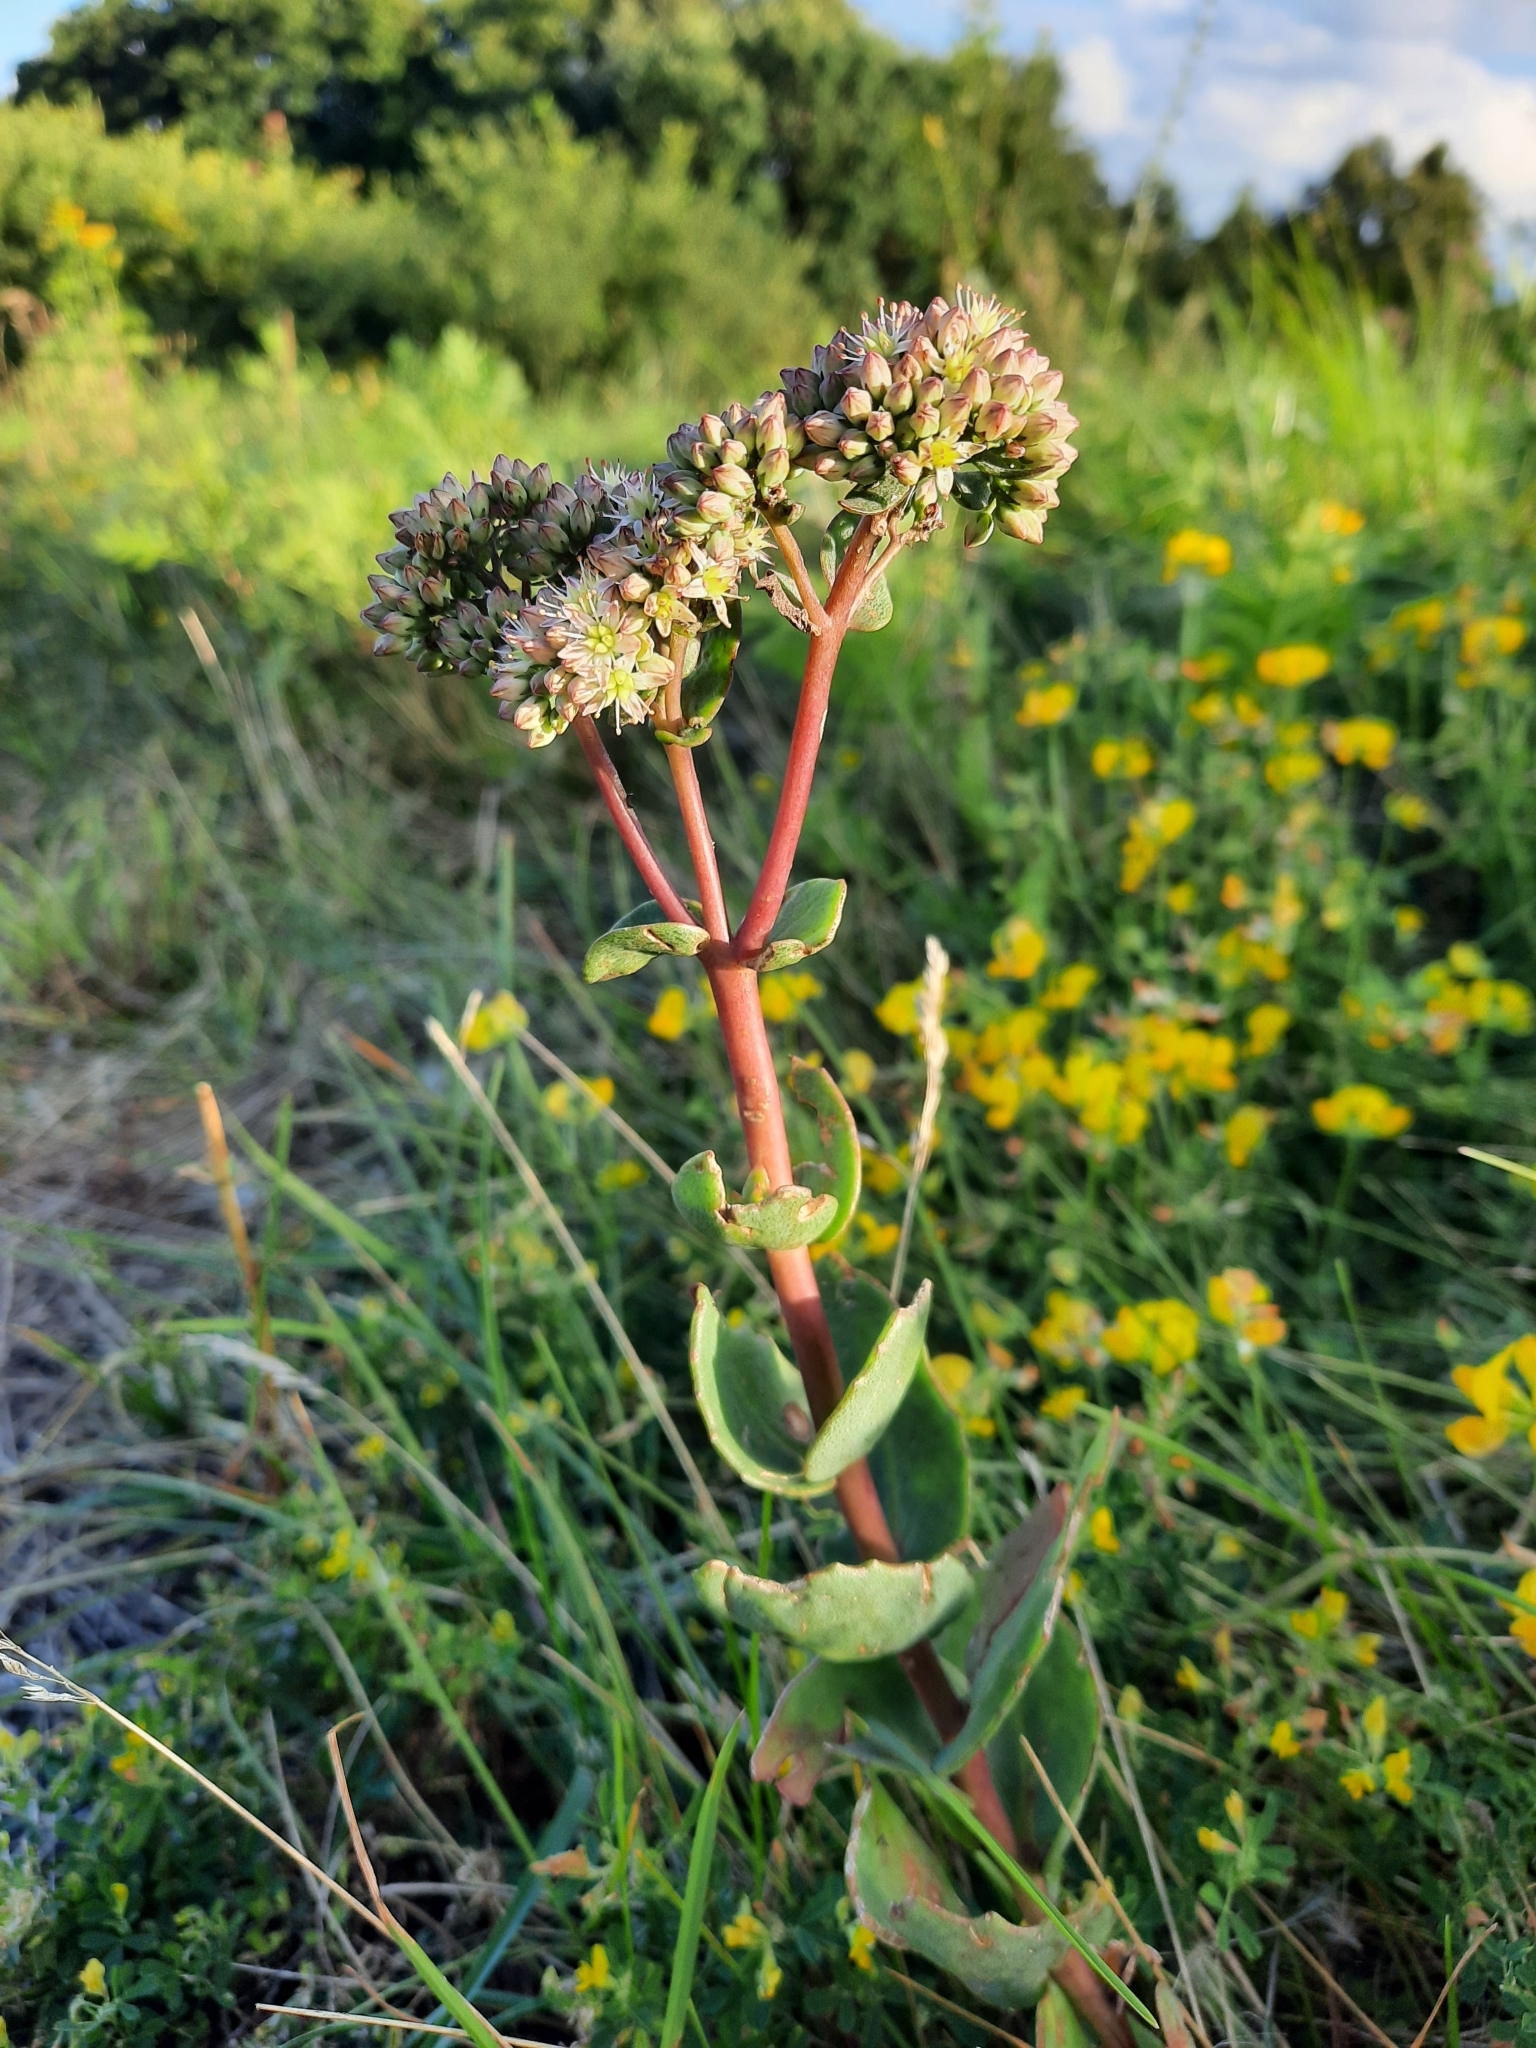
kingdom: Plantae
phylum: Tracheophyta
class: Magnoliopsida
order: Saxifragales
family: Crassulaceae
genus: Hylotelephium
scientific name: Hylotelephium maximum
